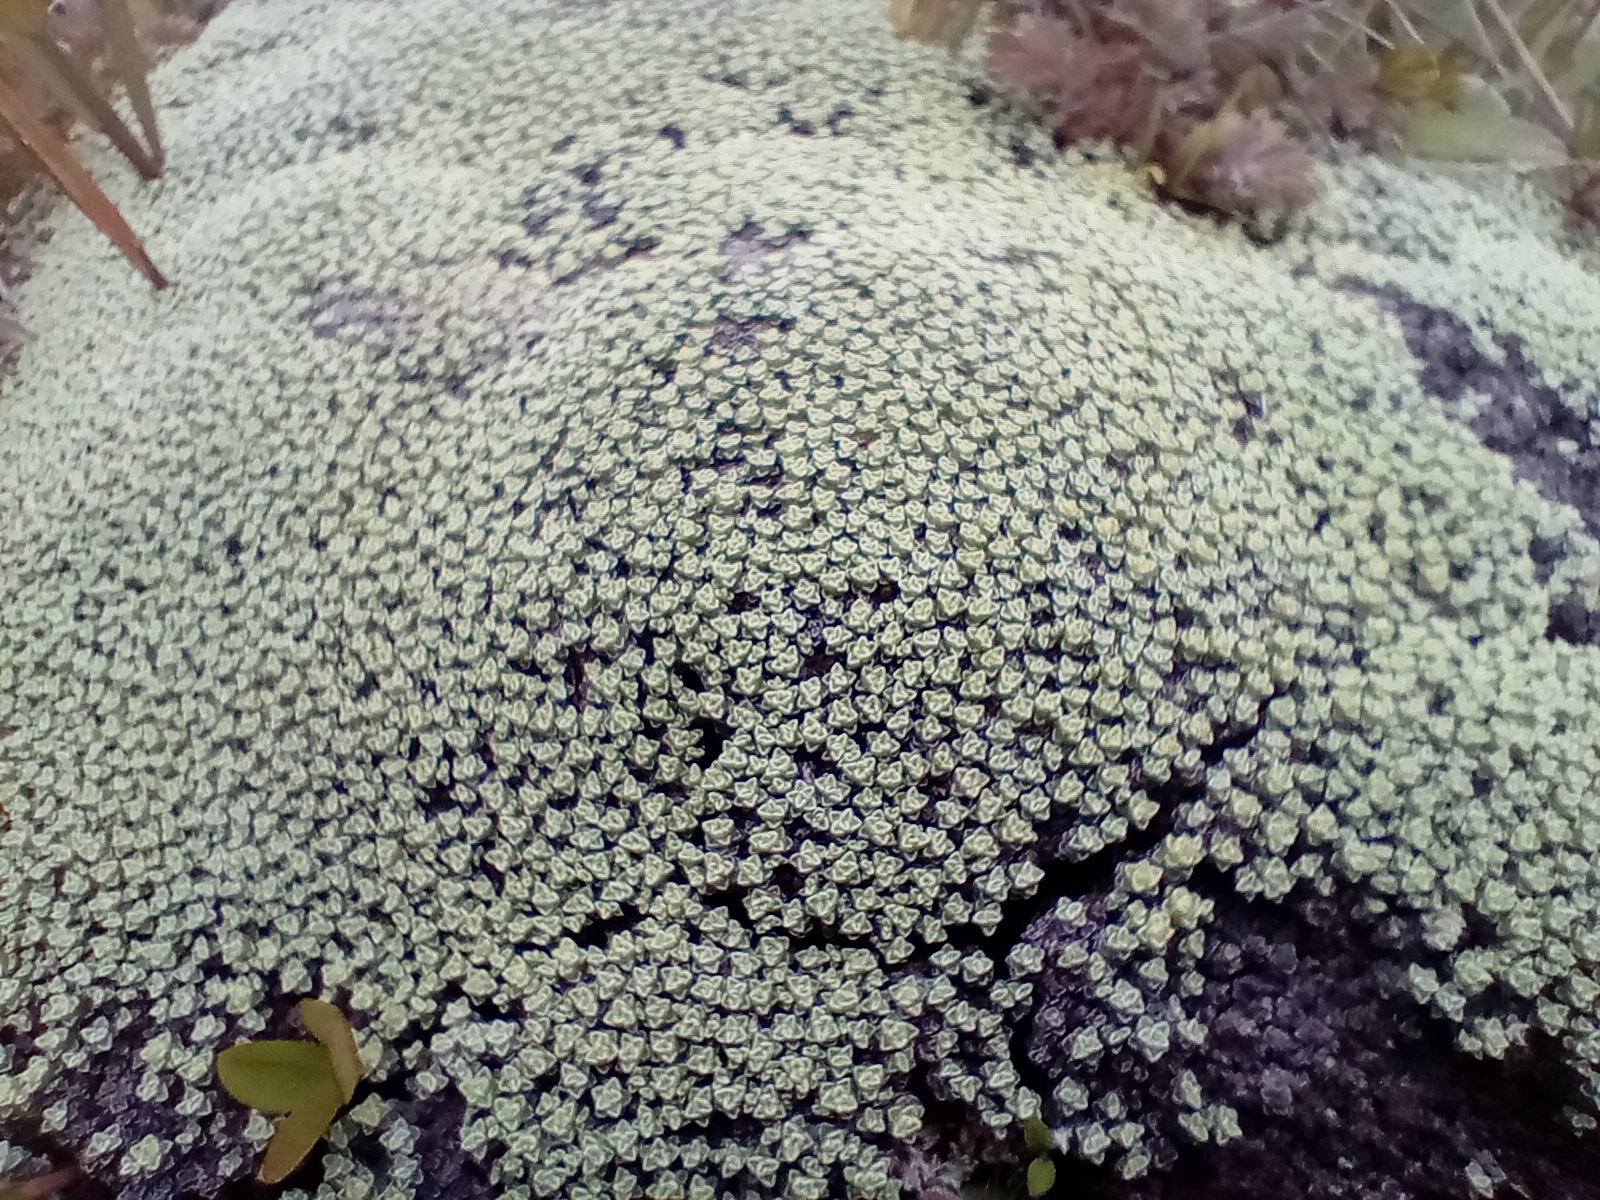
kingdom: Plantae
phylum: Tracheophyta
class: Magnoliopsida
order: Asterales
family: Asteraceae
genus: Raoulia
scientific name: Raoulia australis
